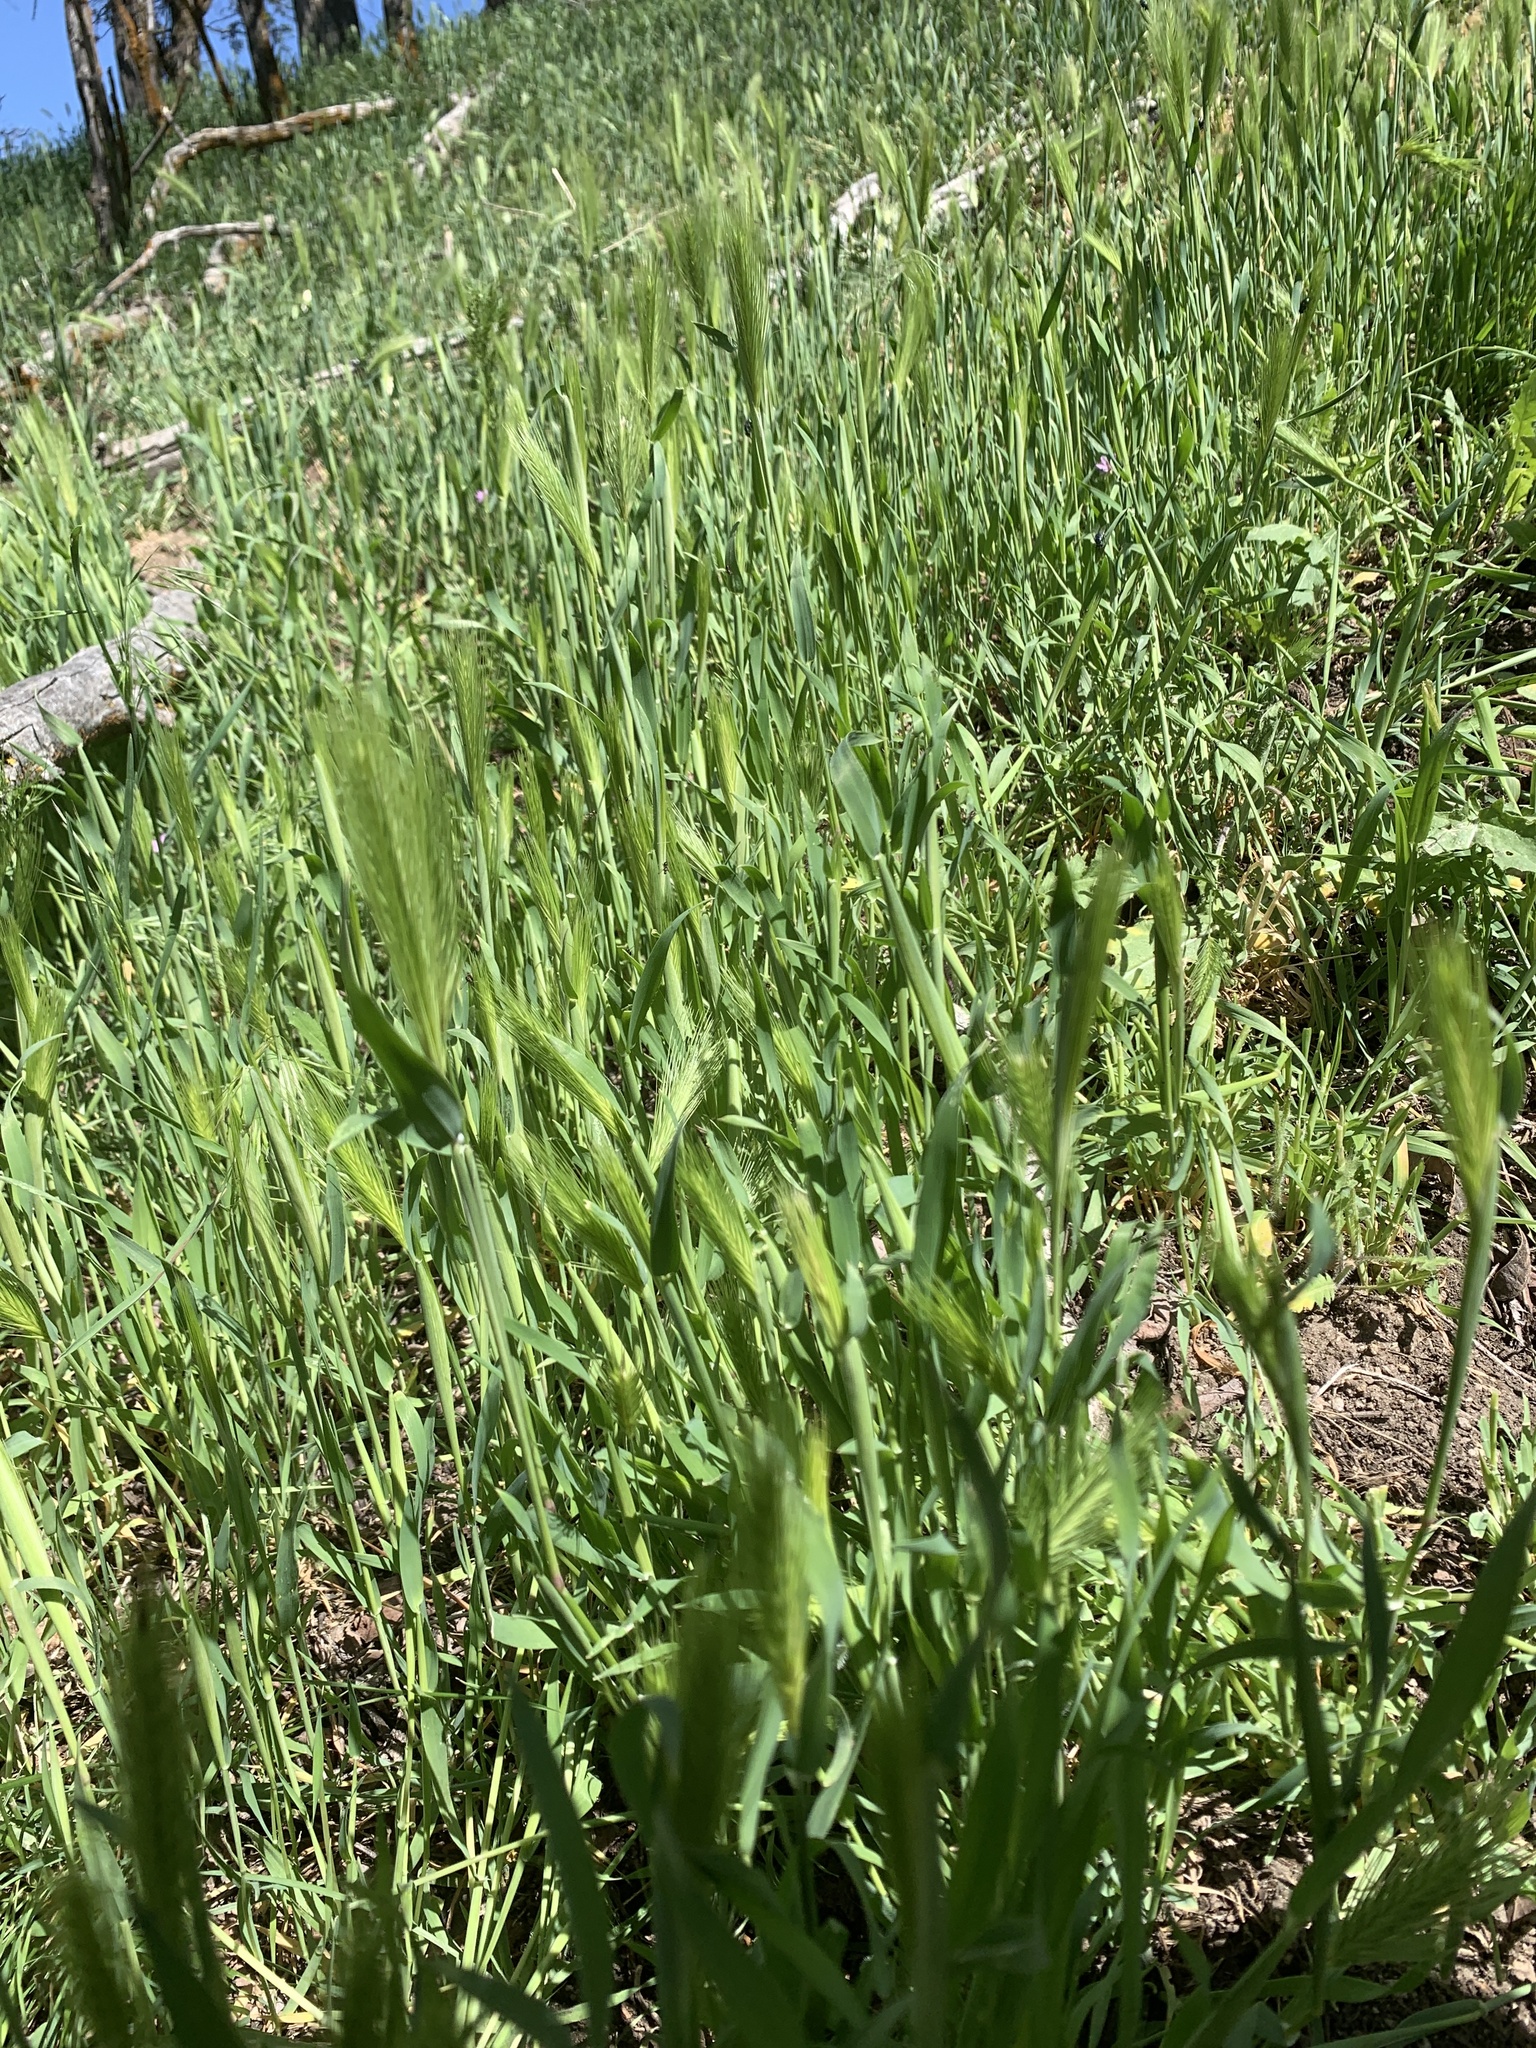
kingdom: Plantae
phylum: Tracheophyta
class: Liliopsida
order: Poales
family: Poaceae
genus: Hordeum
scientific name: Hordeum murinum
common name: Wall barley
